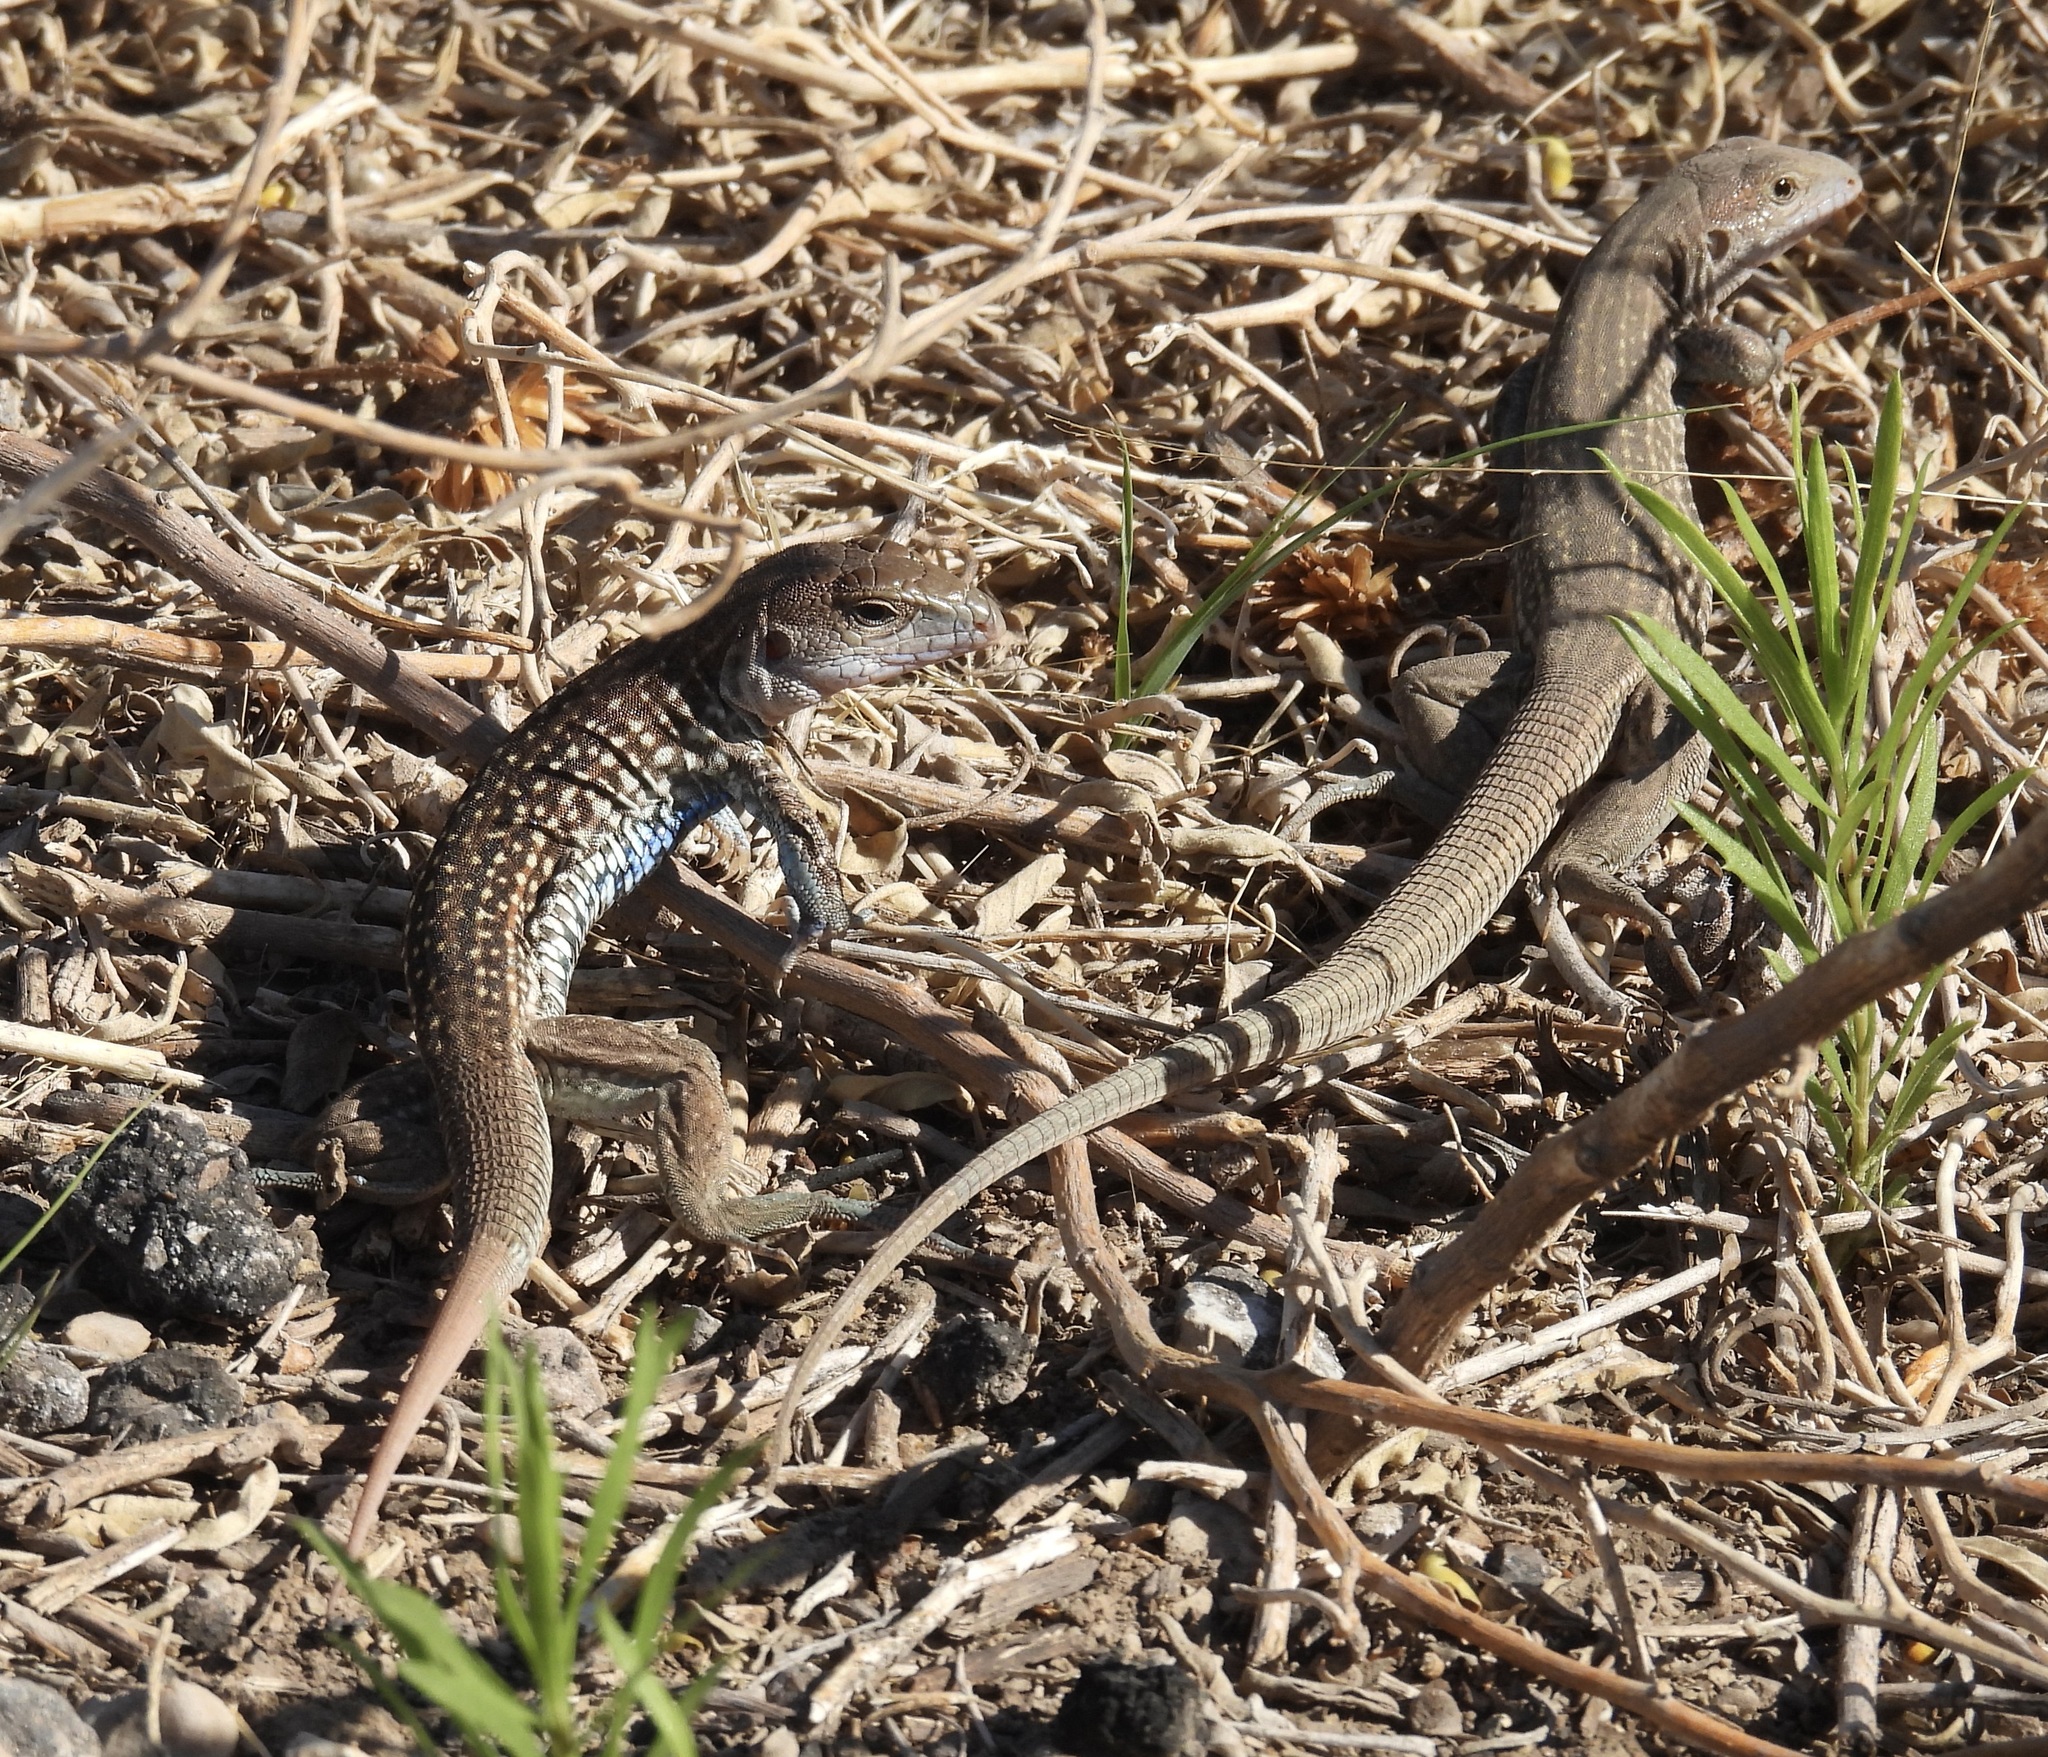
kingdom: Animalia
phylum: Chordata
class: Squamata
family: Teiidae
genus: Aspidoscelis
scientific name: Aspidoscelis exsanguis
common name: Chihuahuan spotted whiptail
